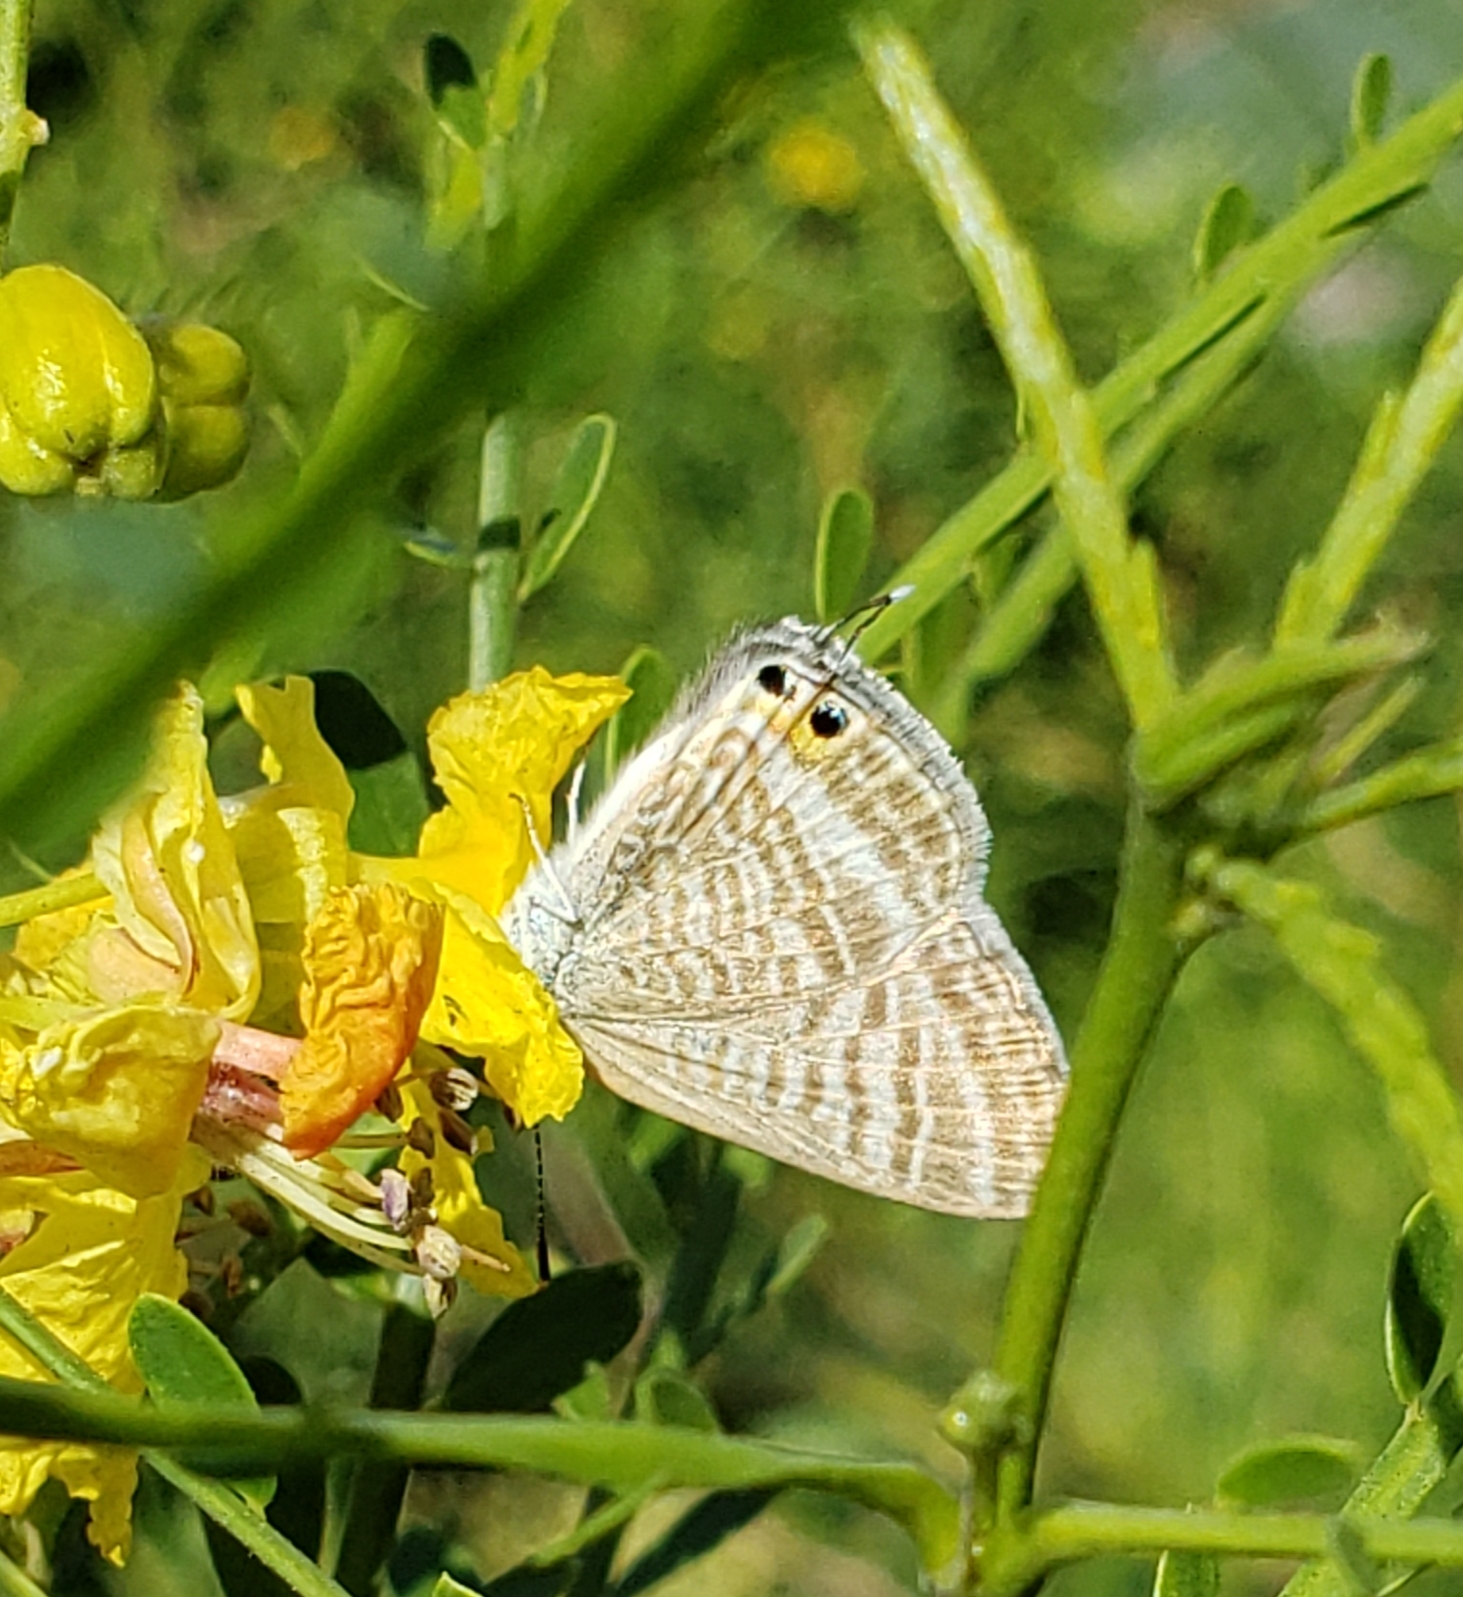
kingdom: Animalia
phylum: Arthropoda
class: Insecta
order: Lepidoptera
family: Lycaenidae
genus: Lampides
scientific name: Lampides boeticus
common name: Long-tailed blue
